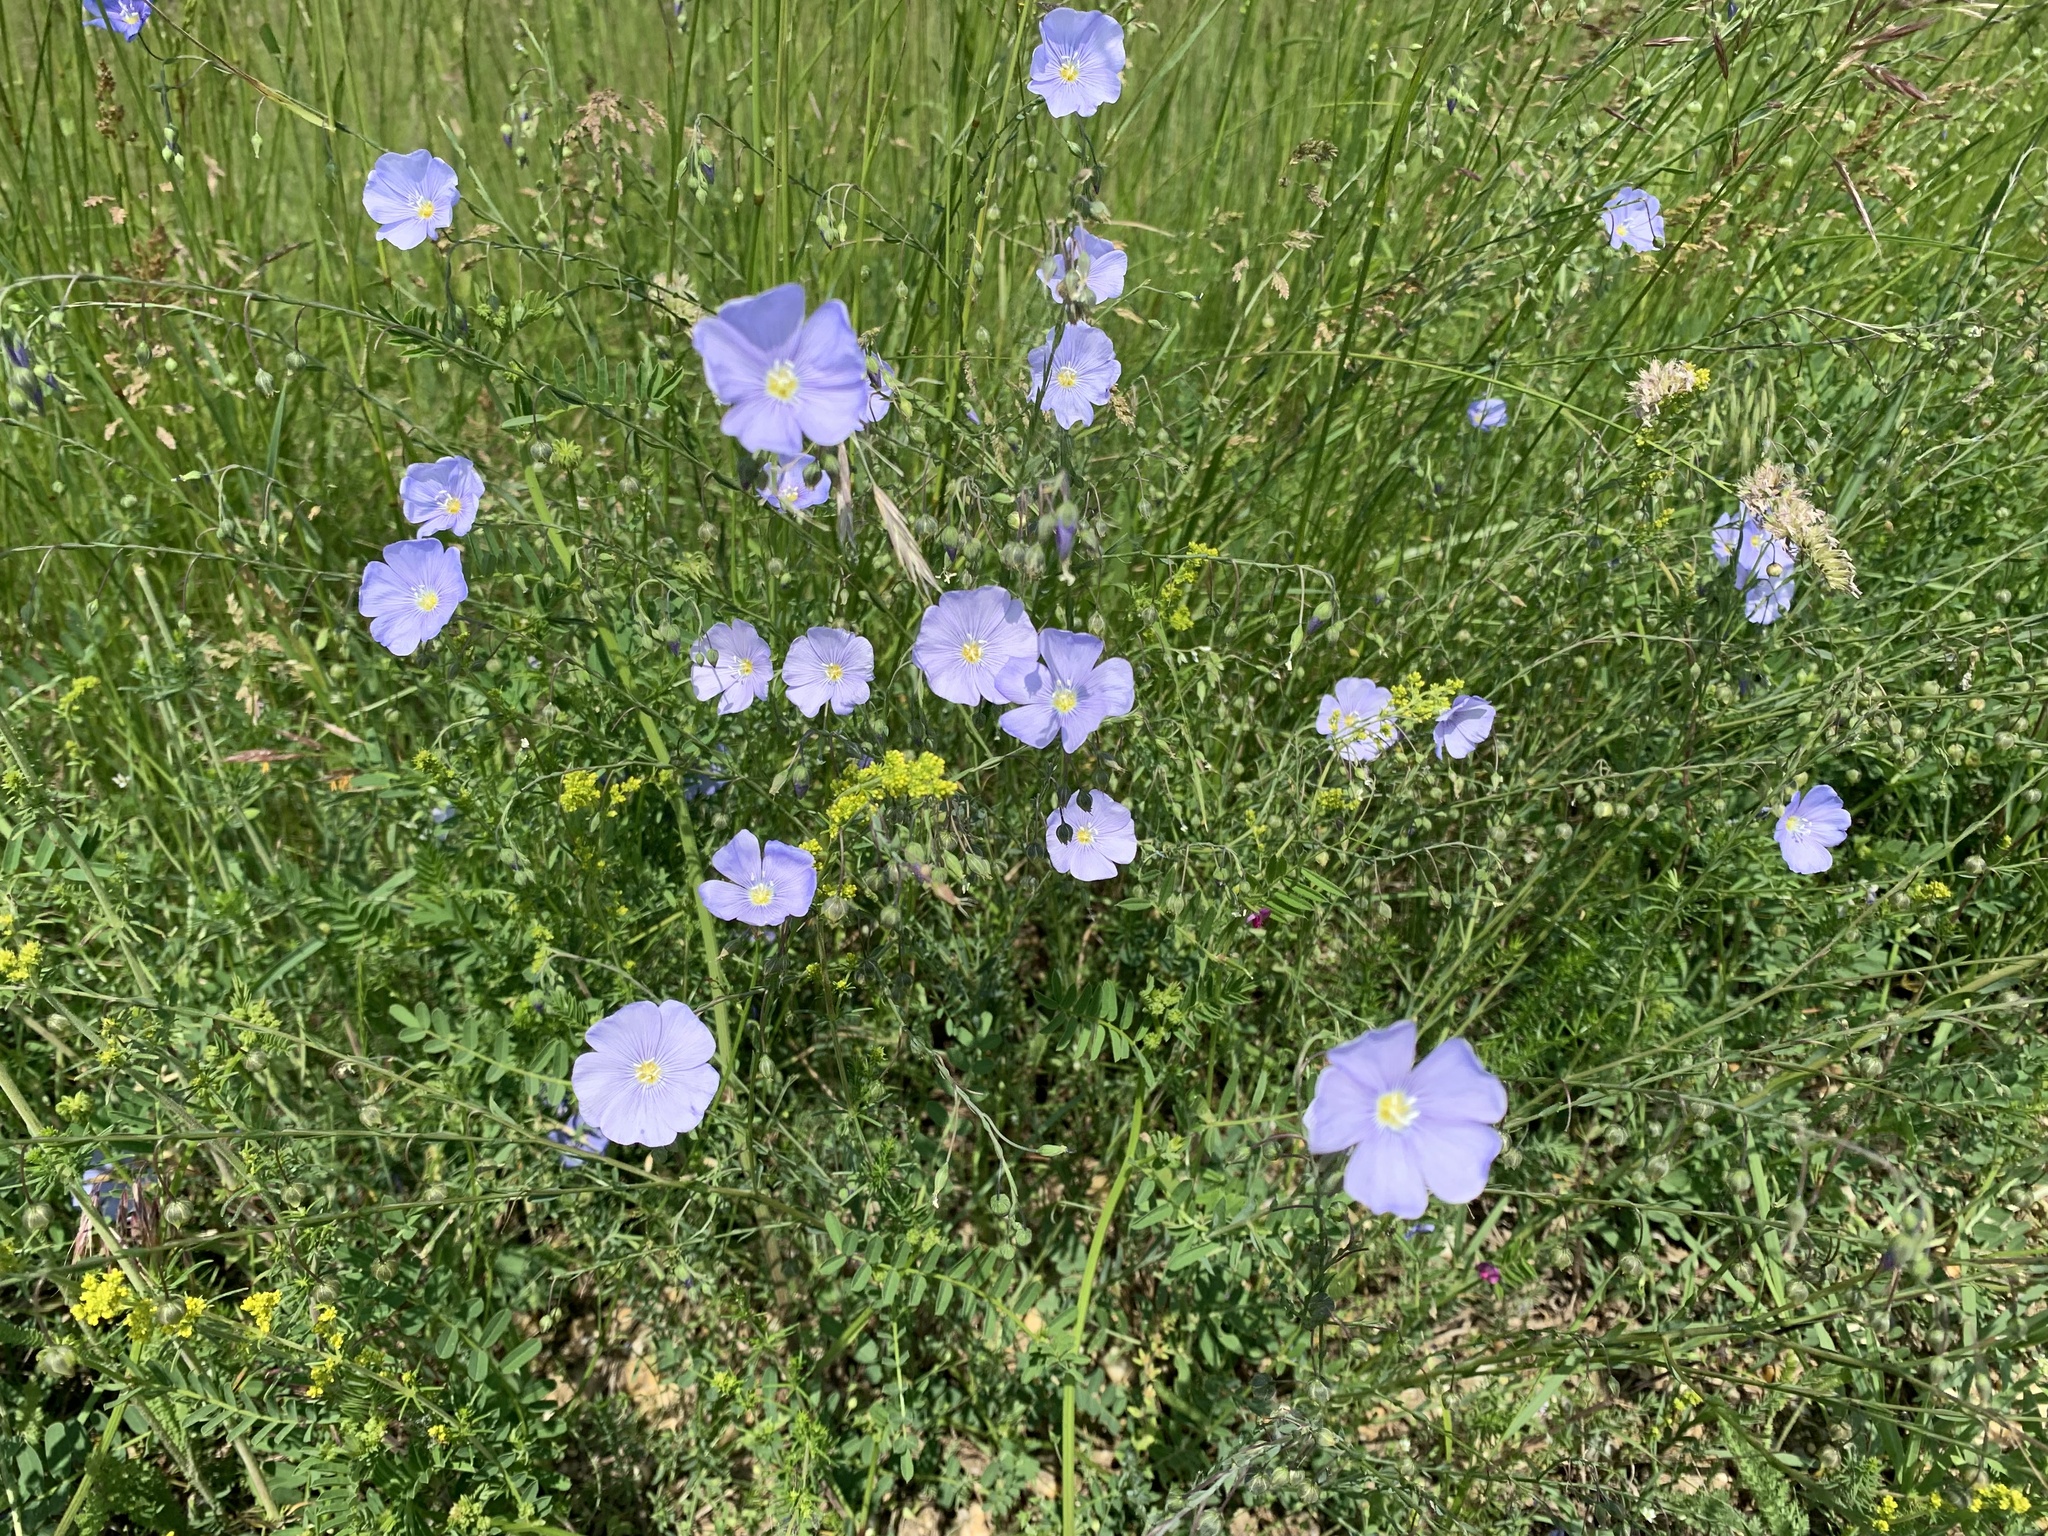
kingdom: Plantae
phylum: Tracheophyta
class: Magnoliopsida
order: Malpighiales
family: Linaceae
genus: Linum
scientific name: Linum austriacum
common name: Austrian flax
